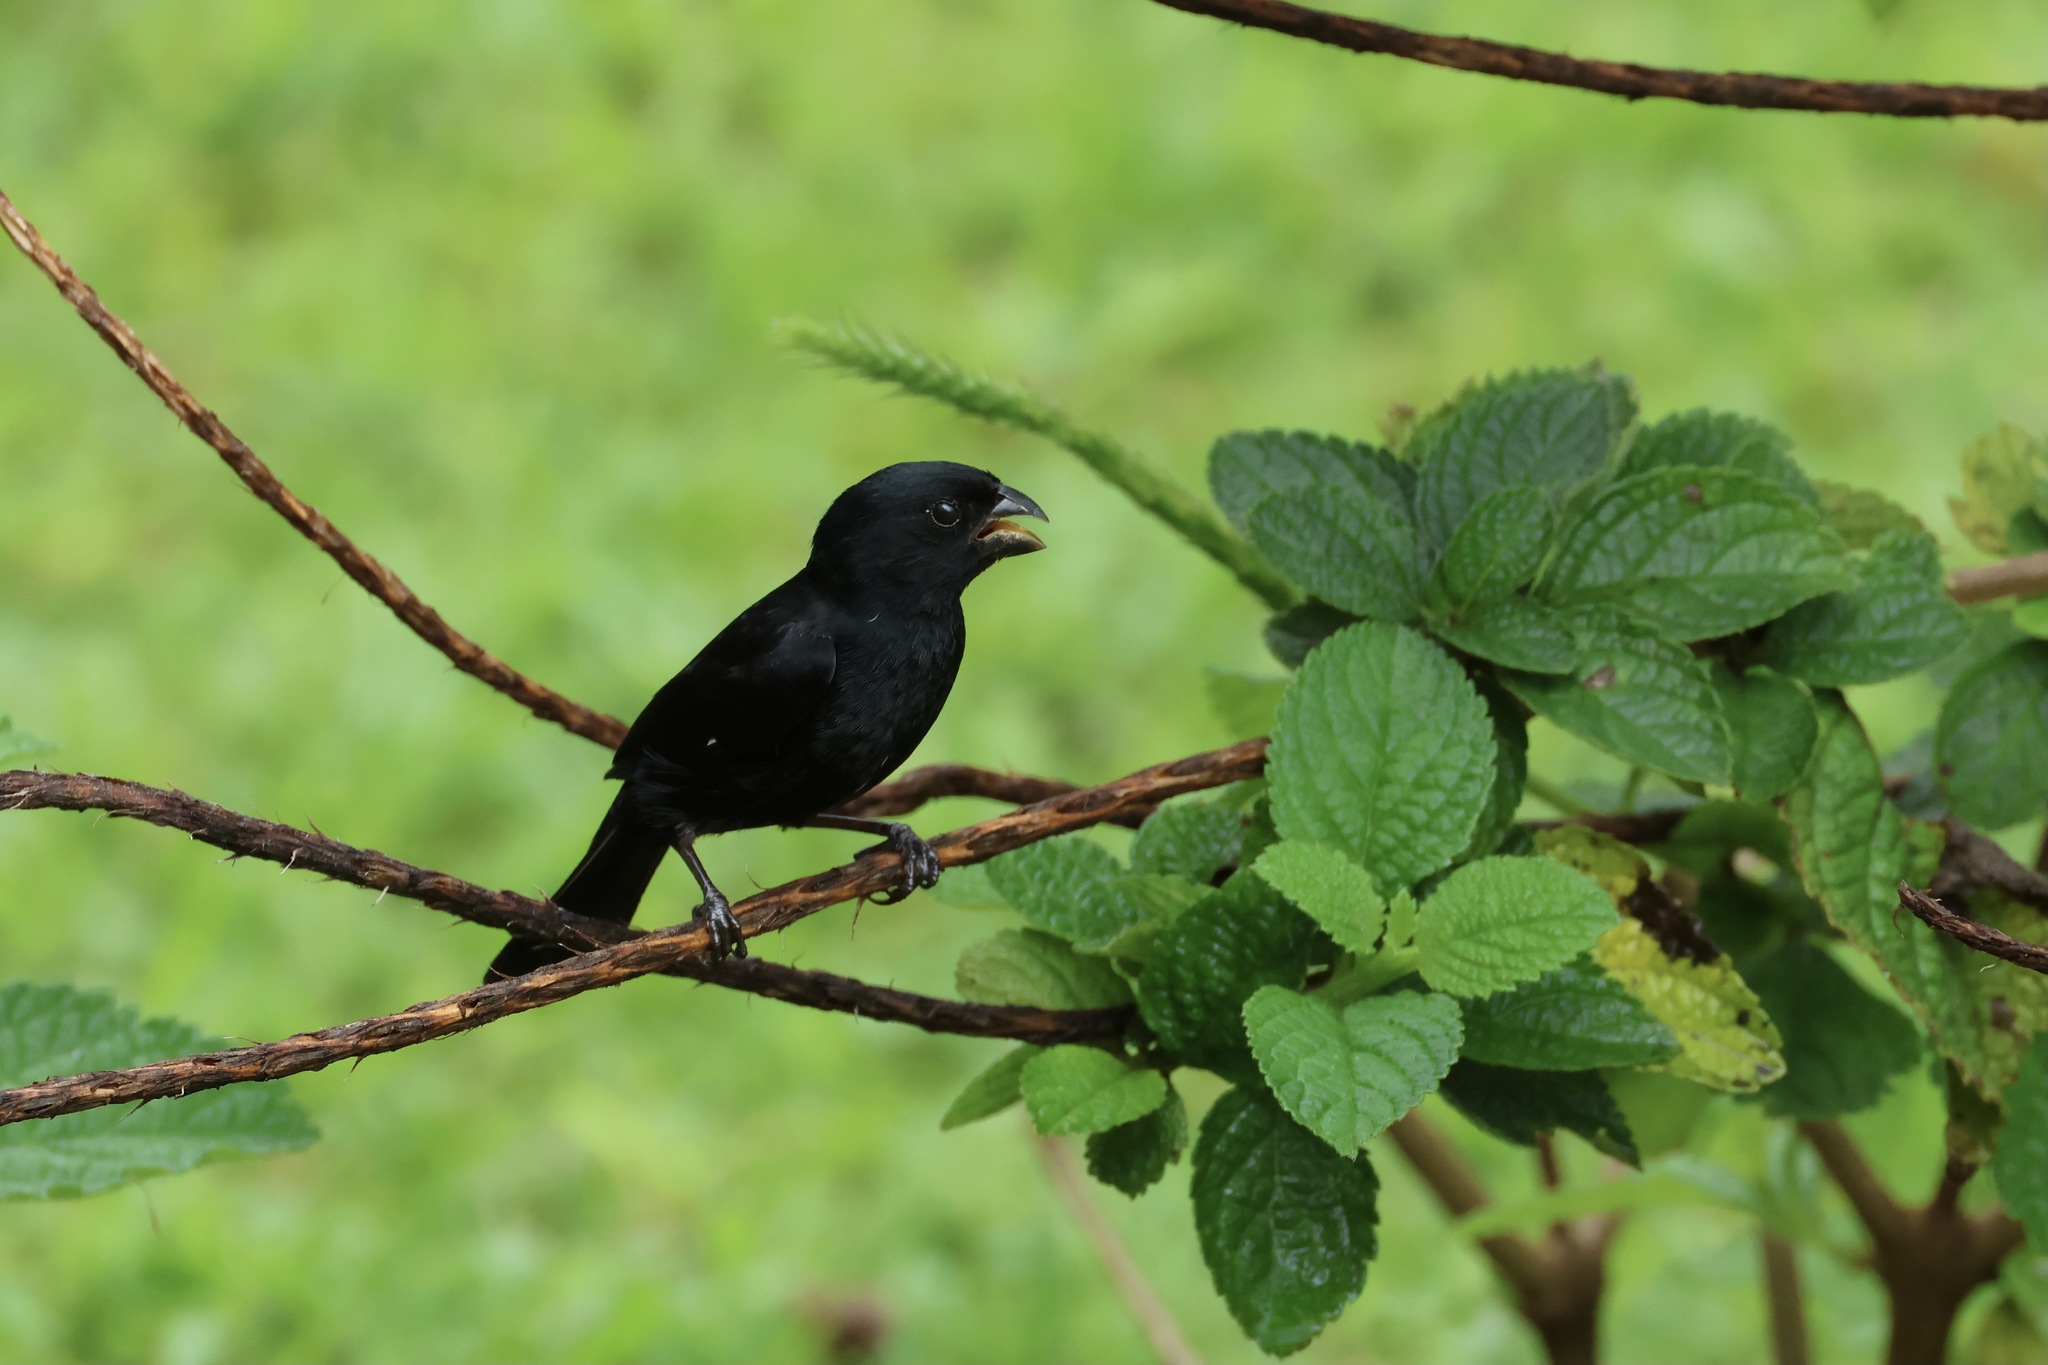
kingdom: Animalia
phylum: Chordata
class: Aves
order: Passeriformes
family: Thraupidae
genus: Sporophila
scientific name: Sporophila corvina
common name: Variable seedeater
